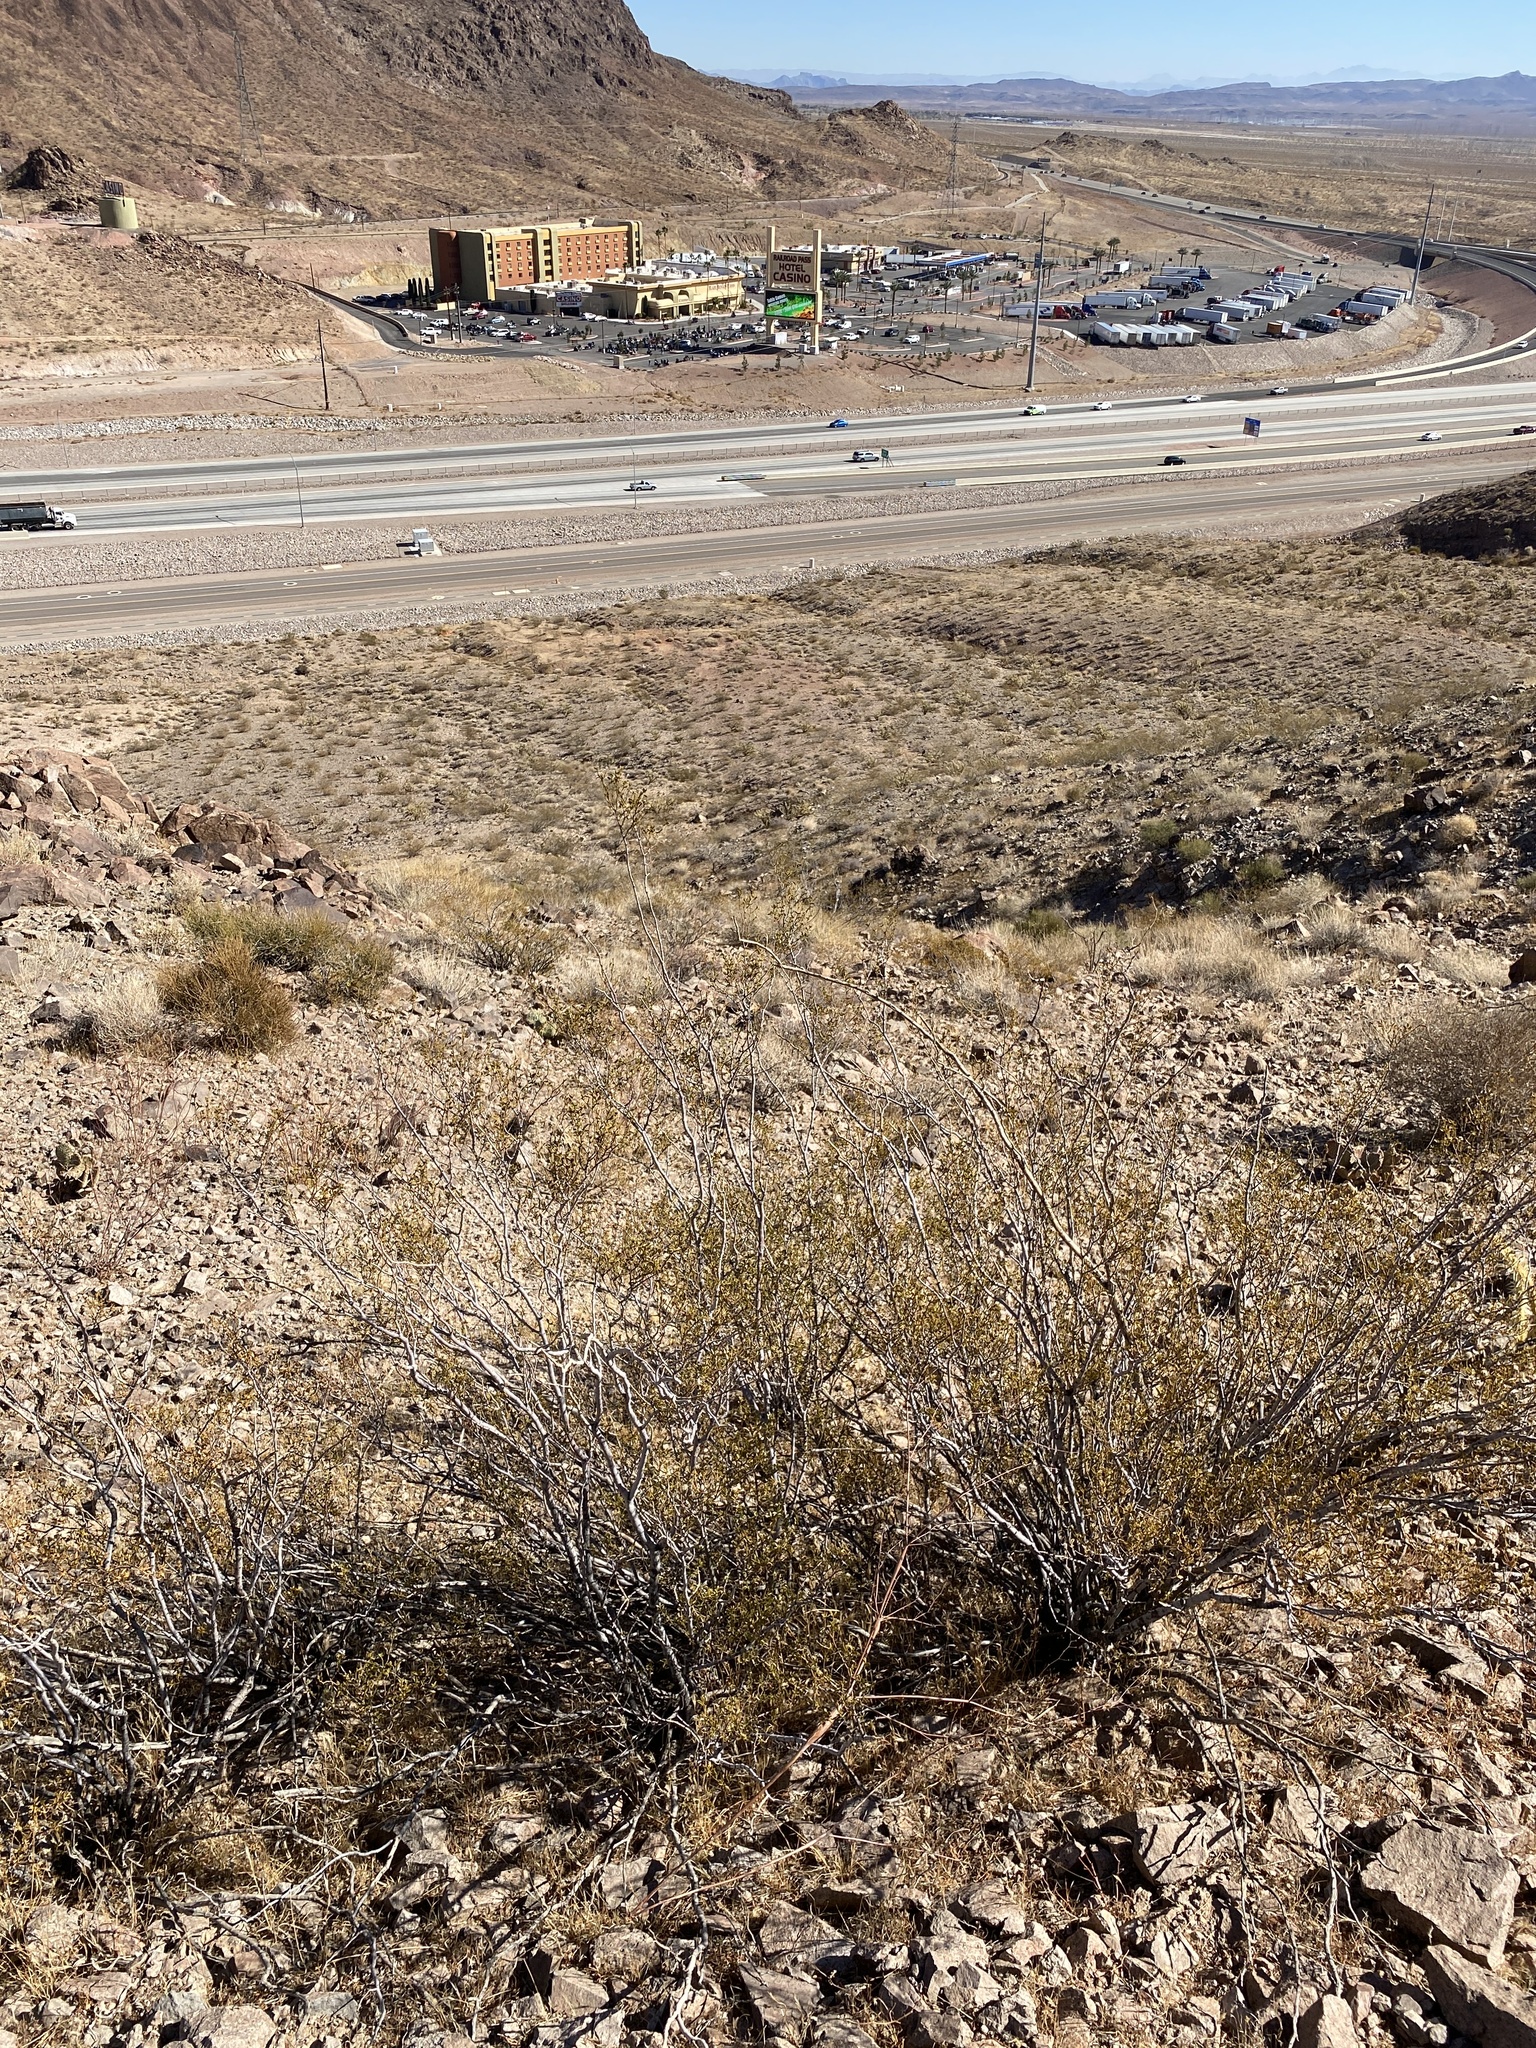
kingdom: Plantae
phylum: Tracheophyta
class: Magnoliopsida
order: Zygophyllales
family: Zygophyllaceae
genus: Larrea
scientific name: Larrea tridentata
